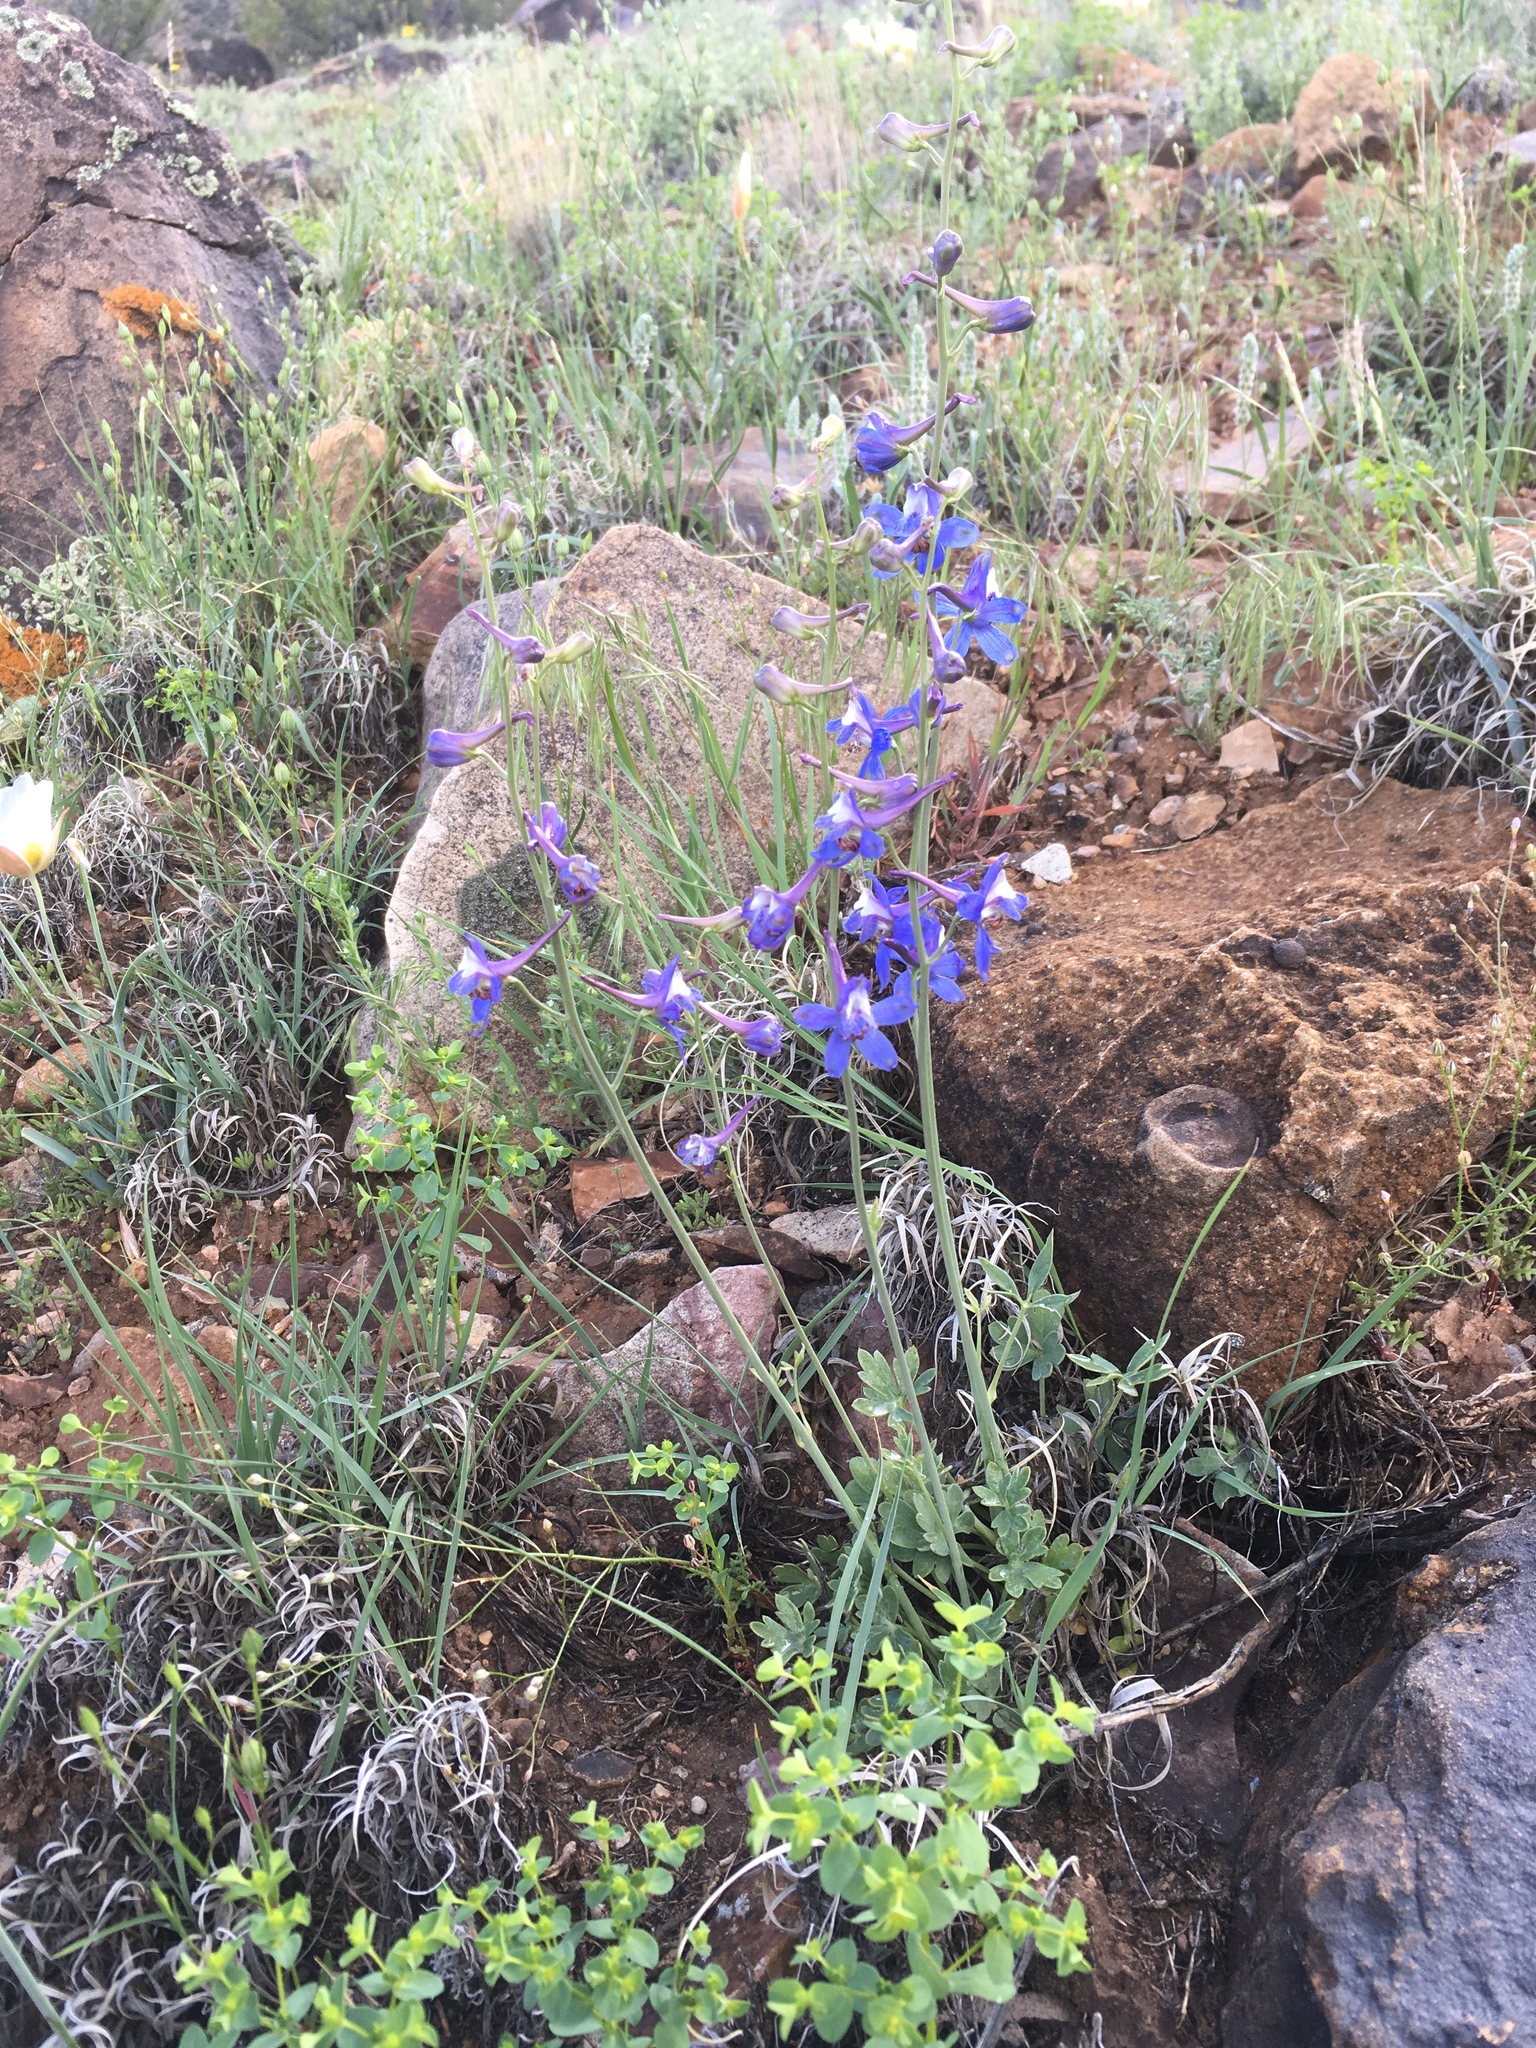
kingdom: Plantae
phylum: Tracheophyta
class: Magnoliopsida
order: Ranunculales
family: Ranunculaceae
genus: Delphinium
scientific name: Delphinium scaposum
